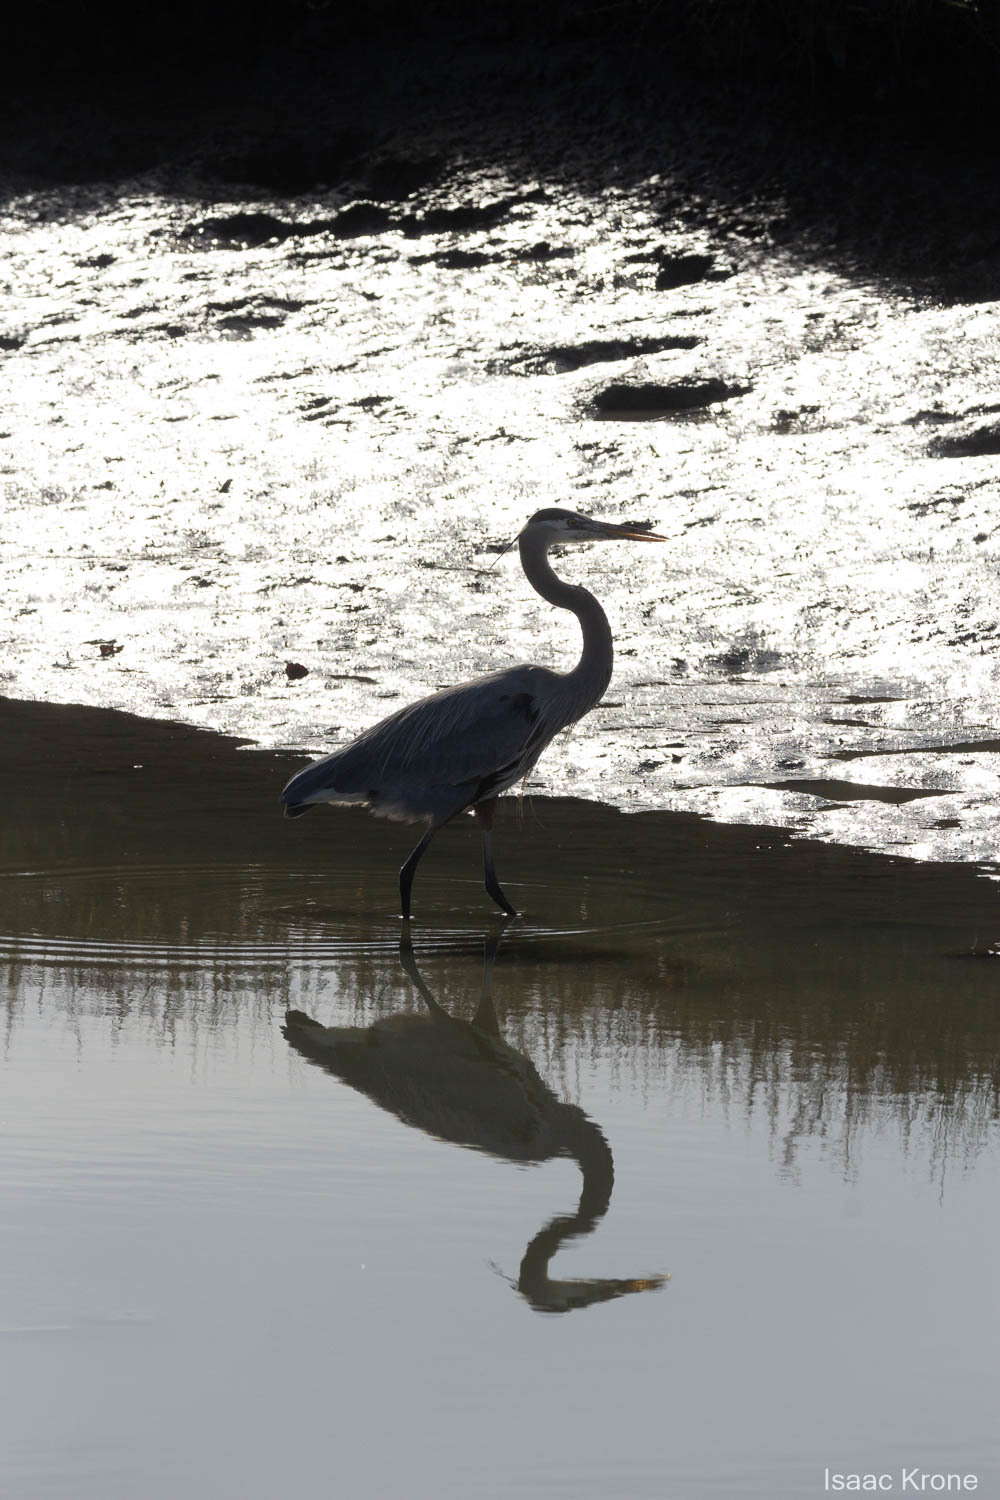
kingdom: Animalia
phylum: Chordata
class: Aves
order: Pelecaniformes
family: Ardeidae
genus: Ardea
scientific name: Ardea herodias
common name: Great blue heron
